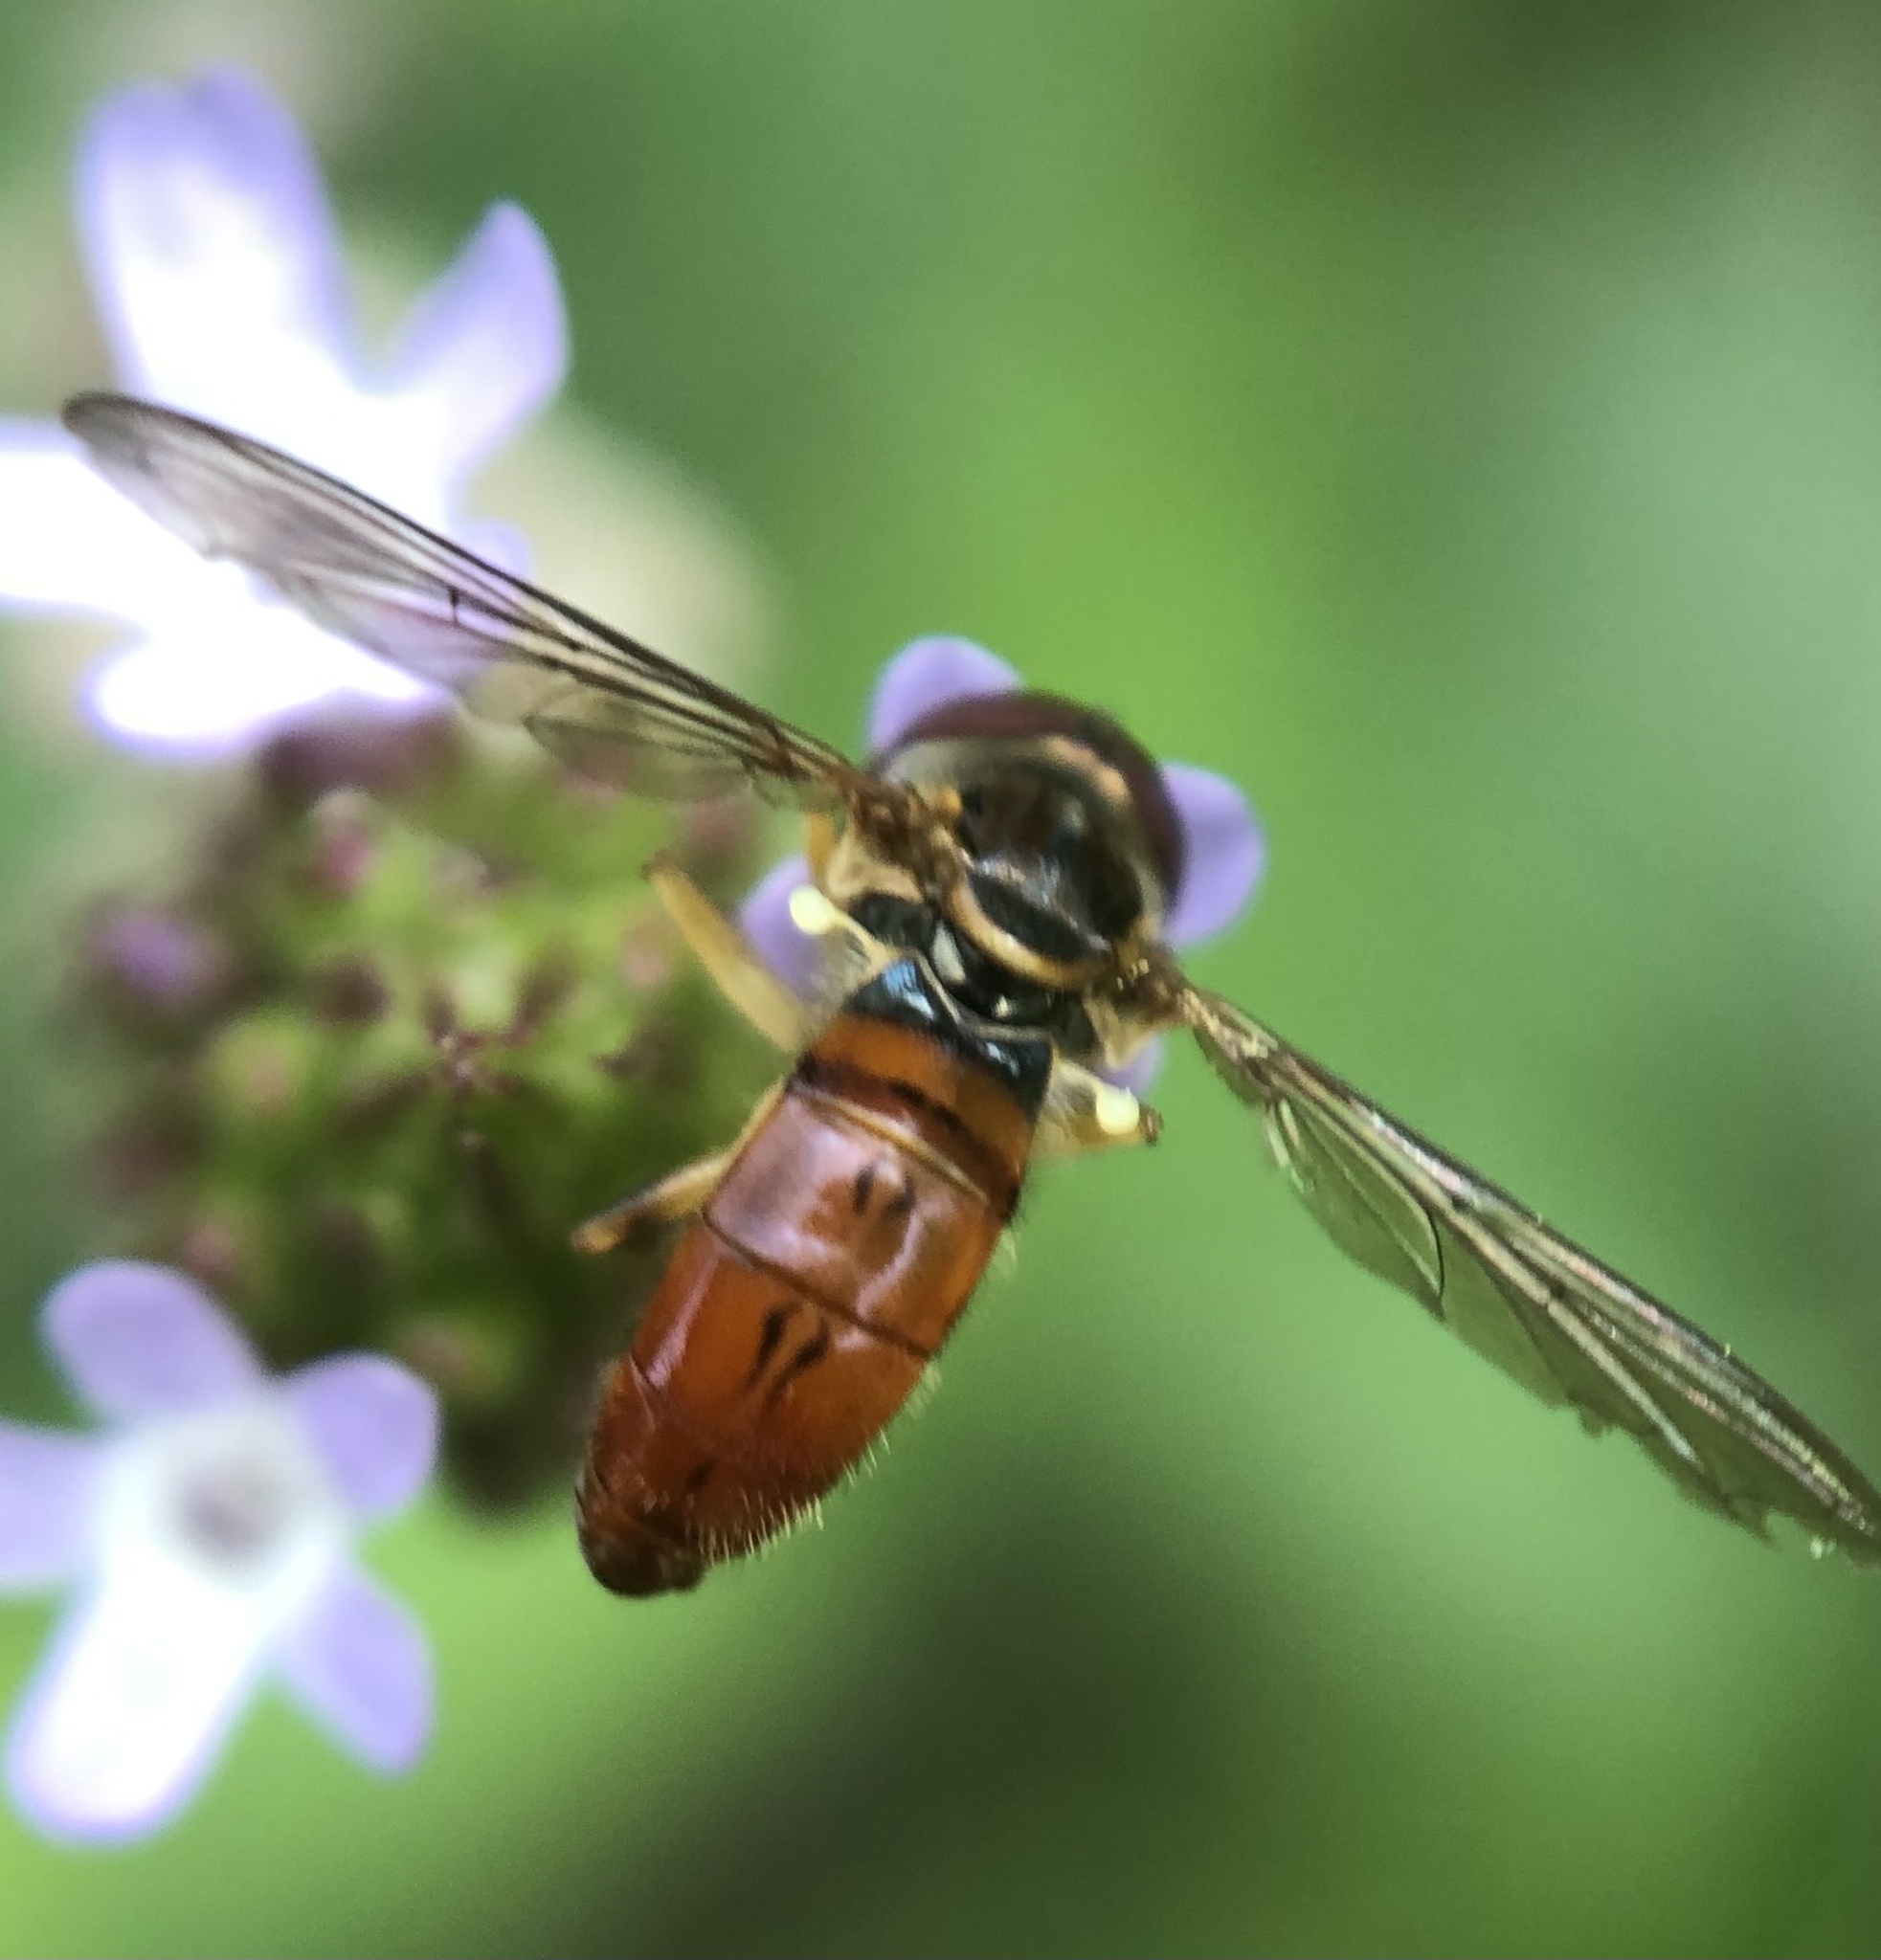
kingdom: Animalia
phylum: Arthropoda
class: Insecta
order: Diptera
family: Syrphidae
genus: Toxomerus
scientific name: Toxomerus boscii
